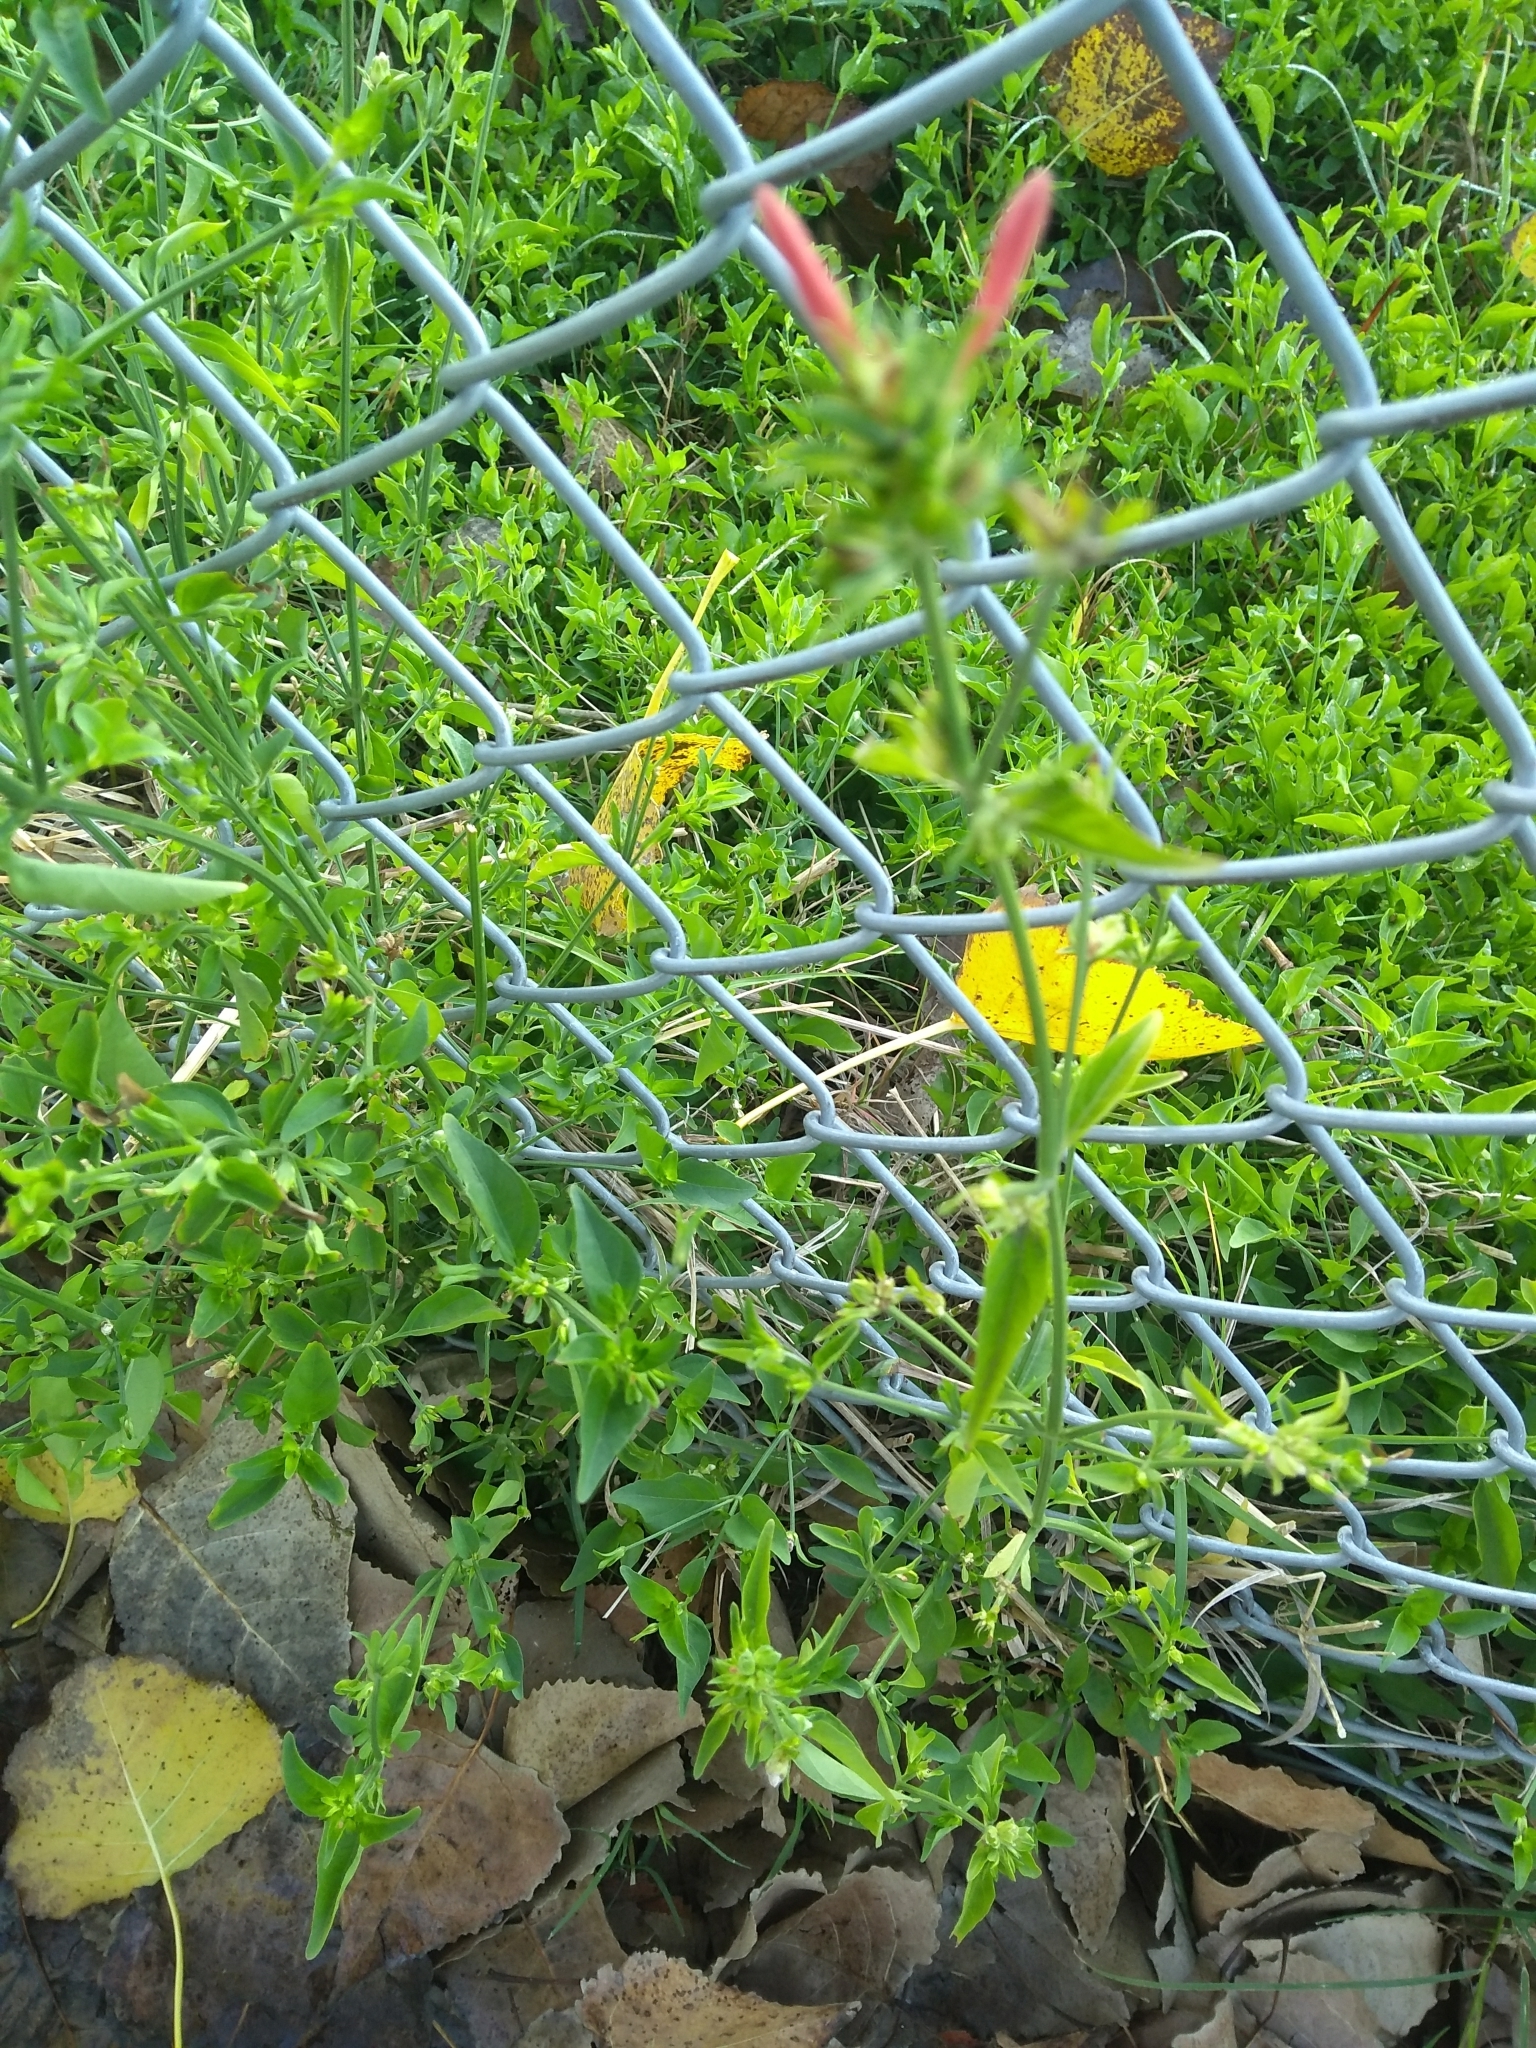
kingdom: Plantae
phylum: Tracheophyta
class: Magnoliopsida
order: Lamiales
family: Acanthaceae
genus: Dicliptera
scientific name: Dicliptera squarrosa
